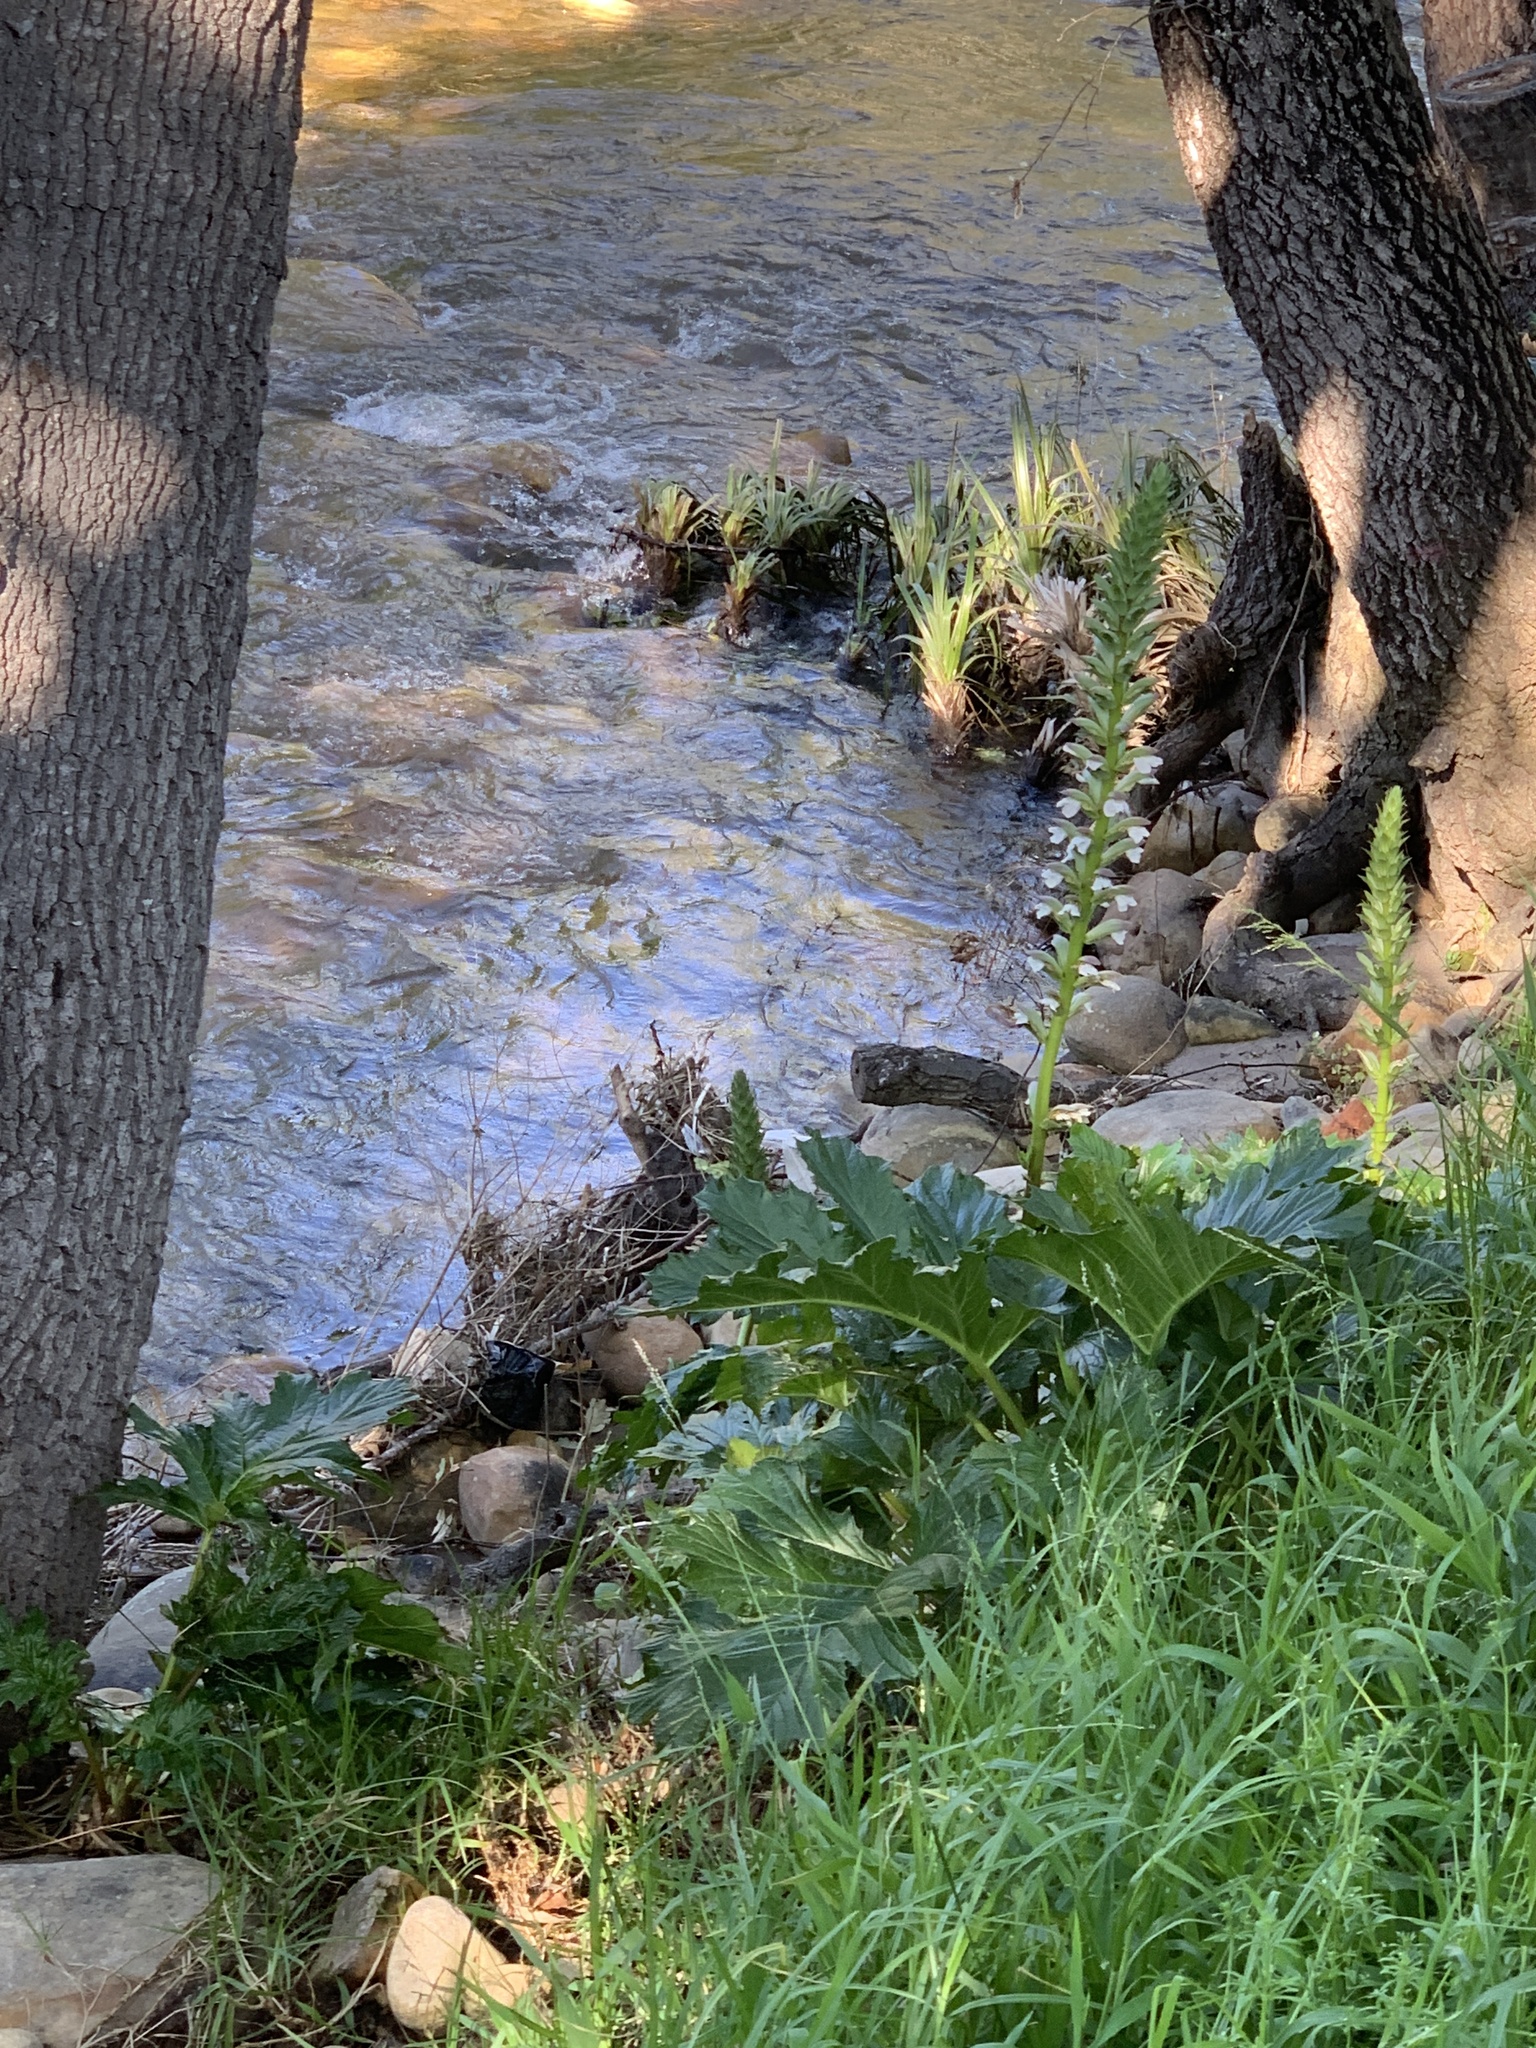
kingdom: Plantae
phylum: Tracheophyta
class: Magnoliopsida
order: Lamiales
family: Acanthaceae
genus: Acanthus
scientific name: Acanthus mollis
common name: Bear's-breech
